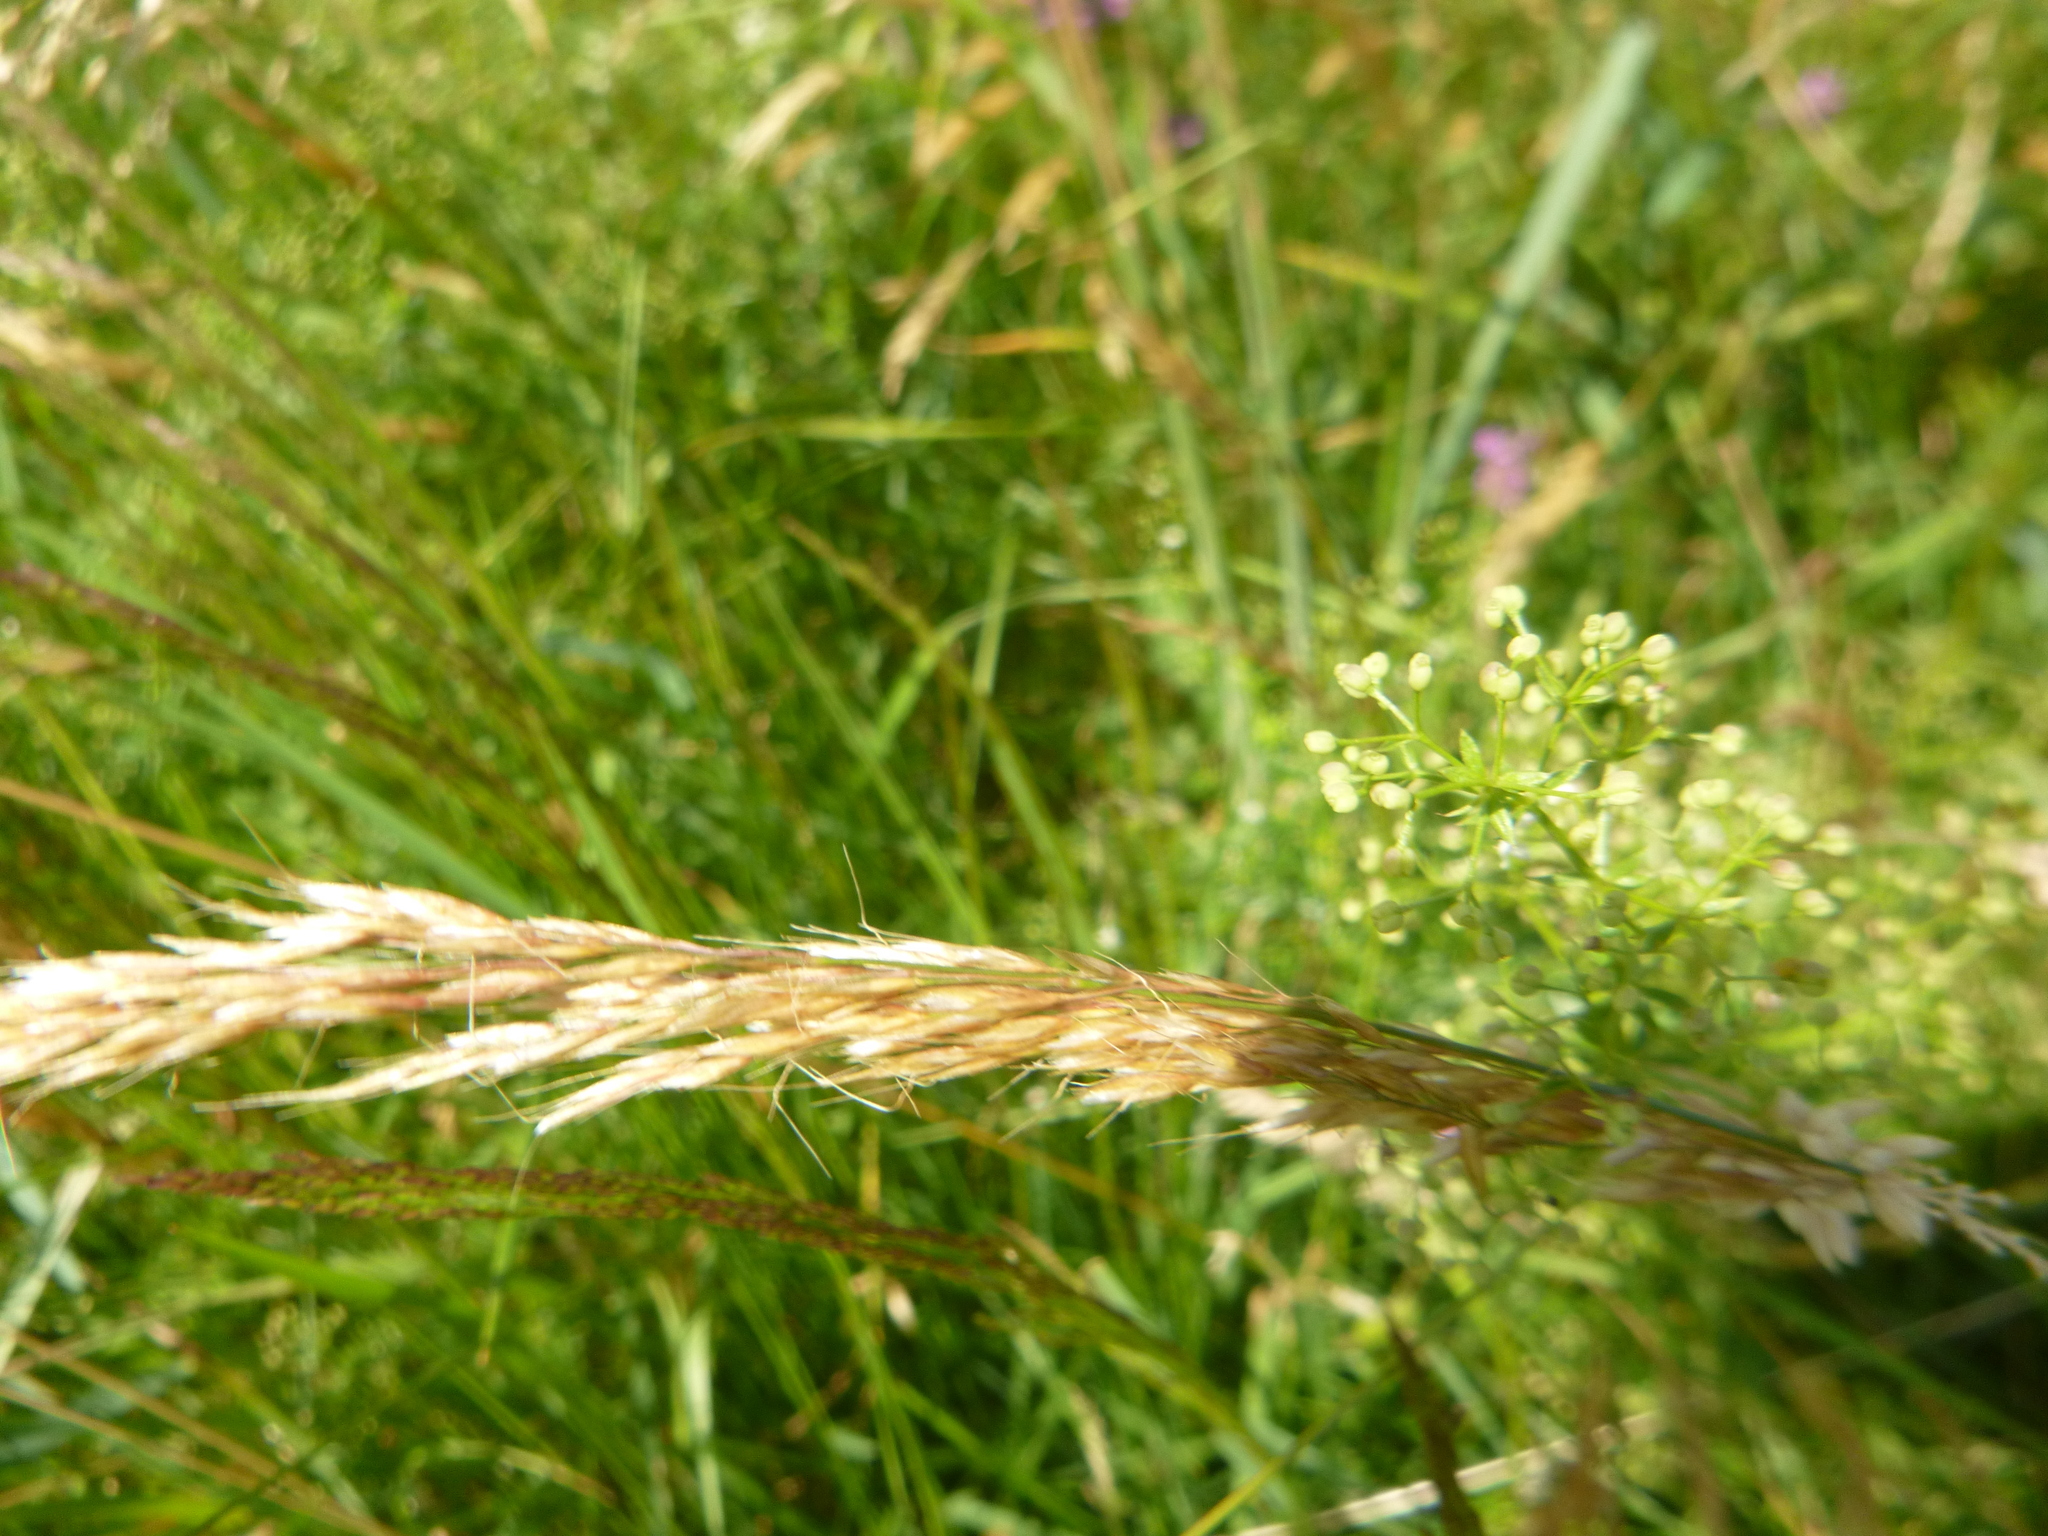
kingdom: Plantae
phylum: Tracheophyta
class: Liliopsida
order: Poales
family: Poaceae
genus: Trisetum
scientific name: Trisetum flavescens
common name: Yellow oat-grass
